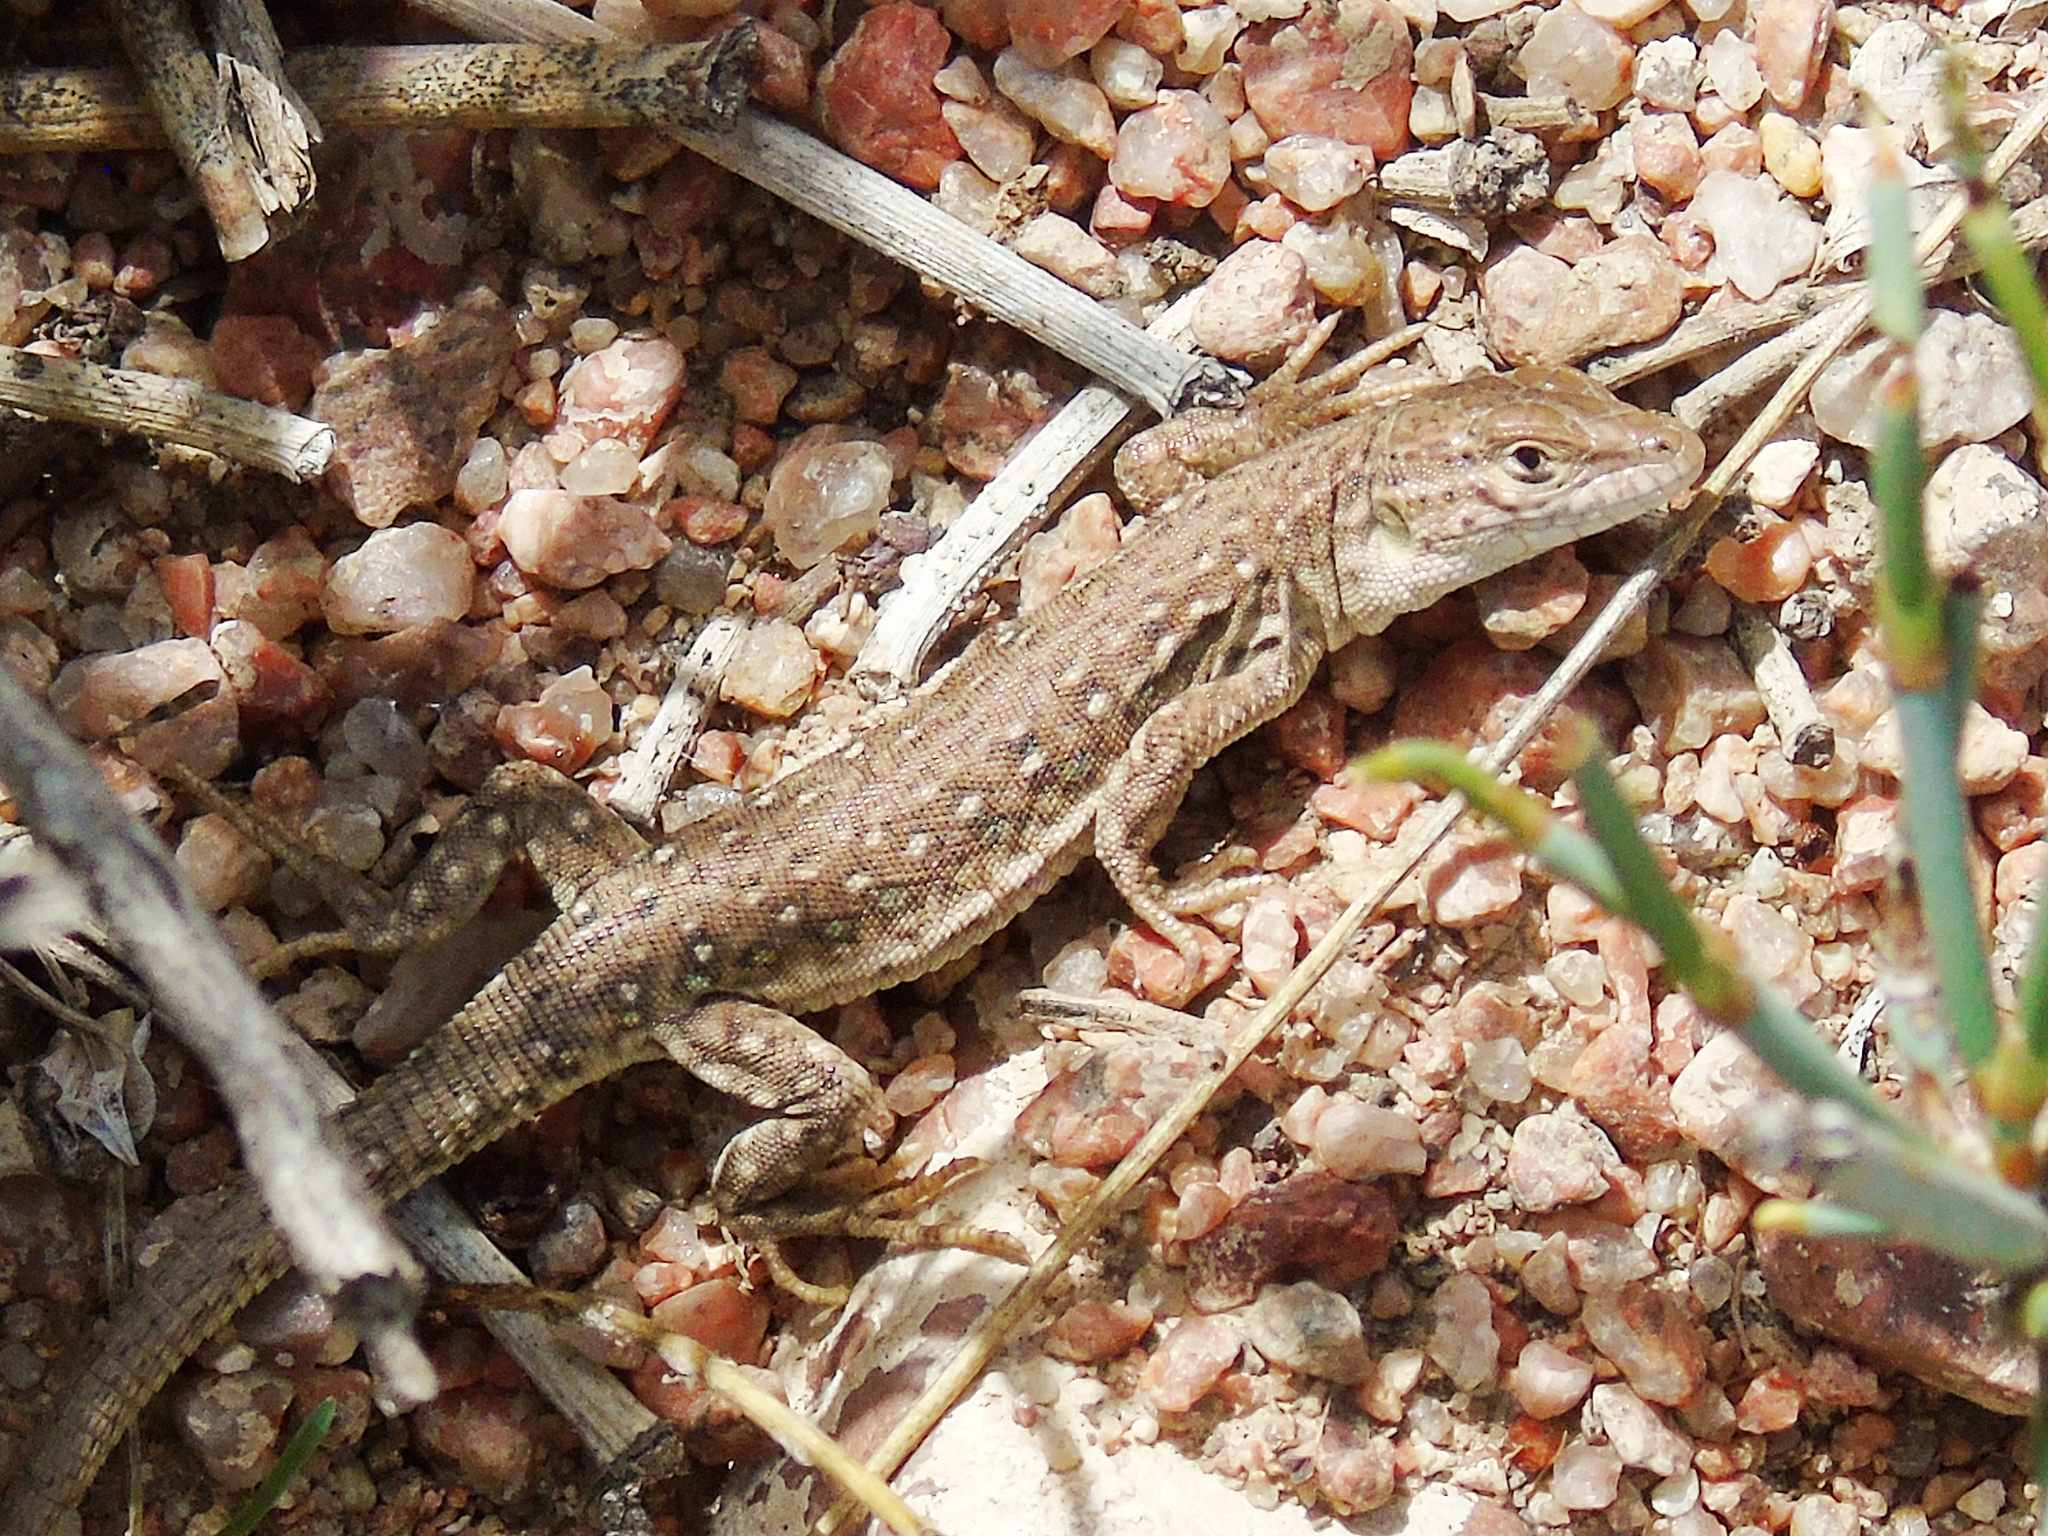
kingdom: Animalia
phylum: Chordata
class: Squamata
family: Lacertidae
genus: Eremias
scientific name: Eremias stummeri
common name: Stummer’s racerunner
